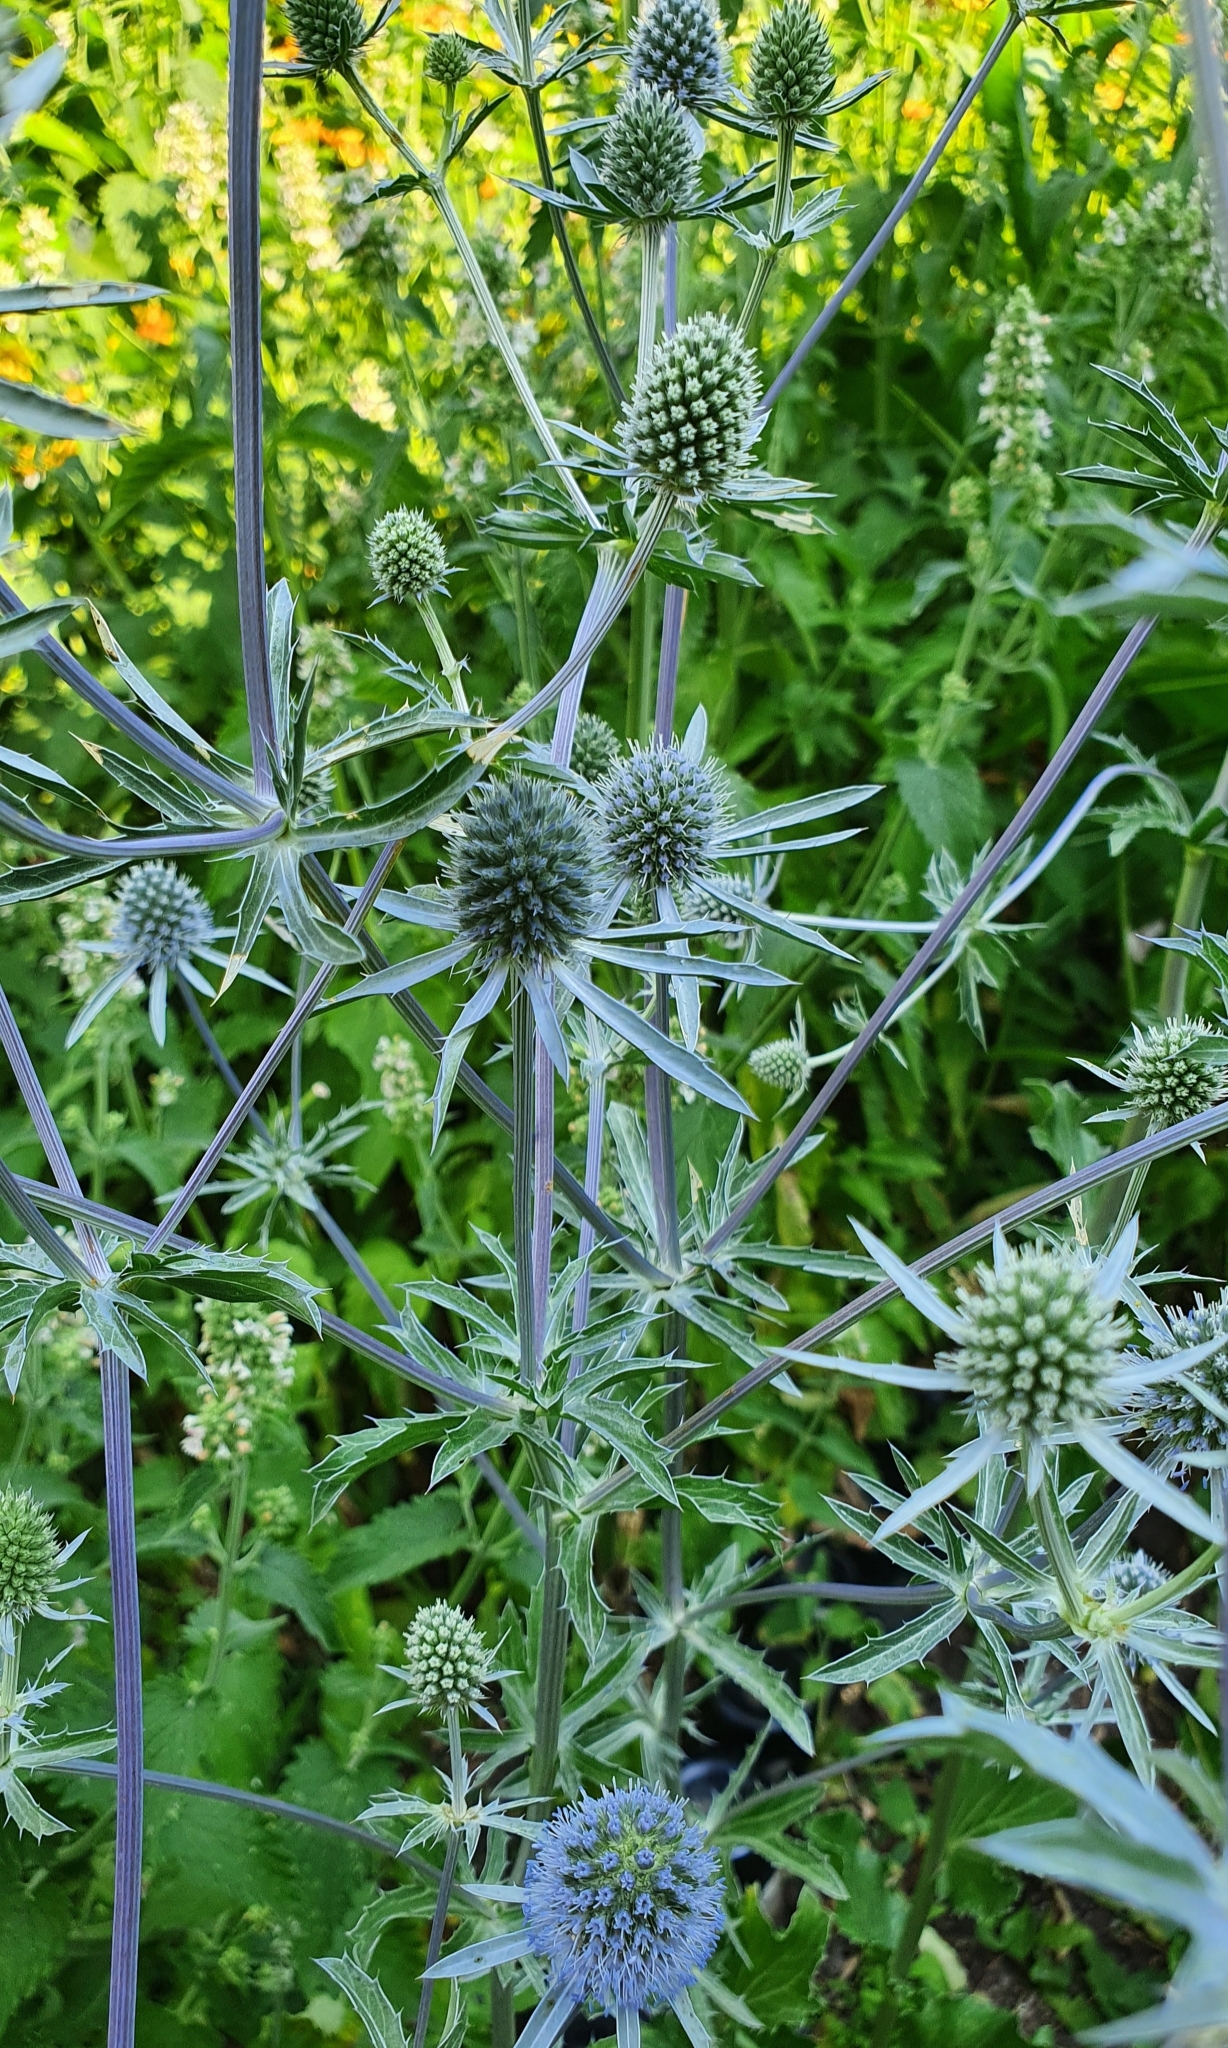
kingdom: Plantae
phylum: Tracheophyta
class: Magnoliopsida
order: Apiales
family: Apiaceae
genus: Eryngium
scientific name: Eryngium planum
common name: Blue eryngo
